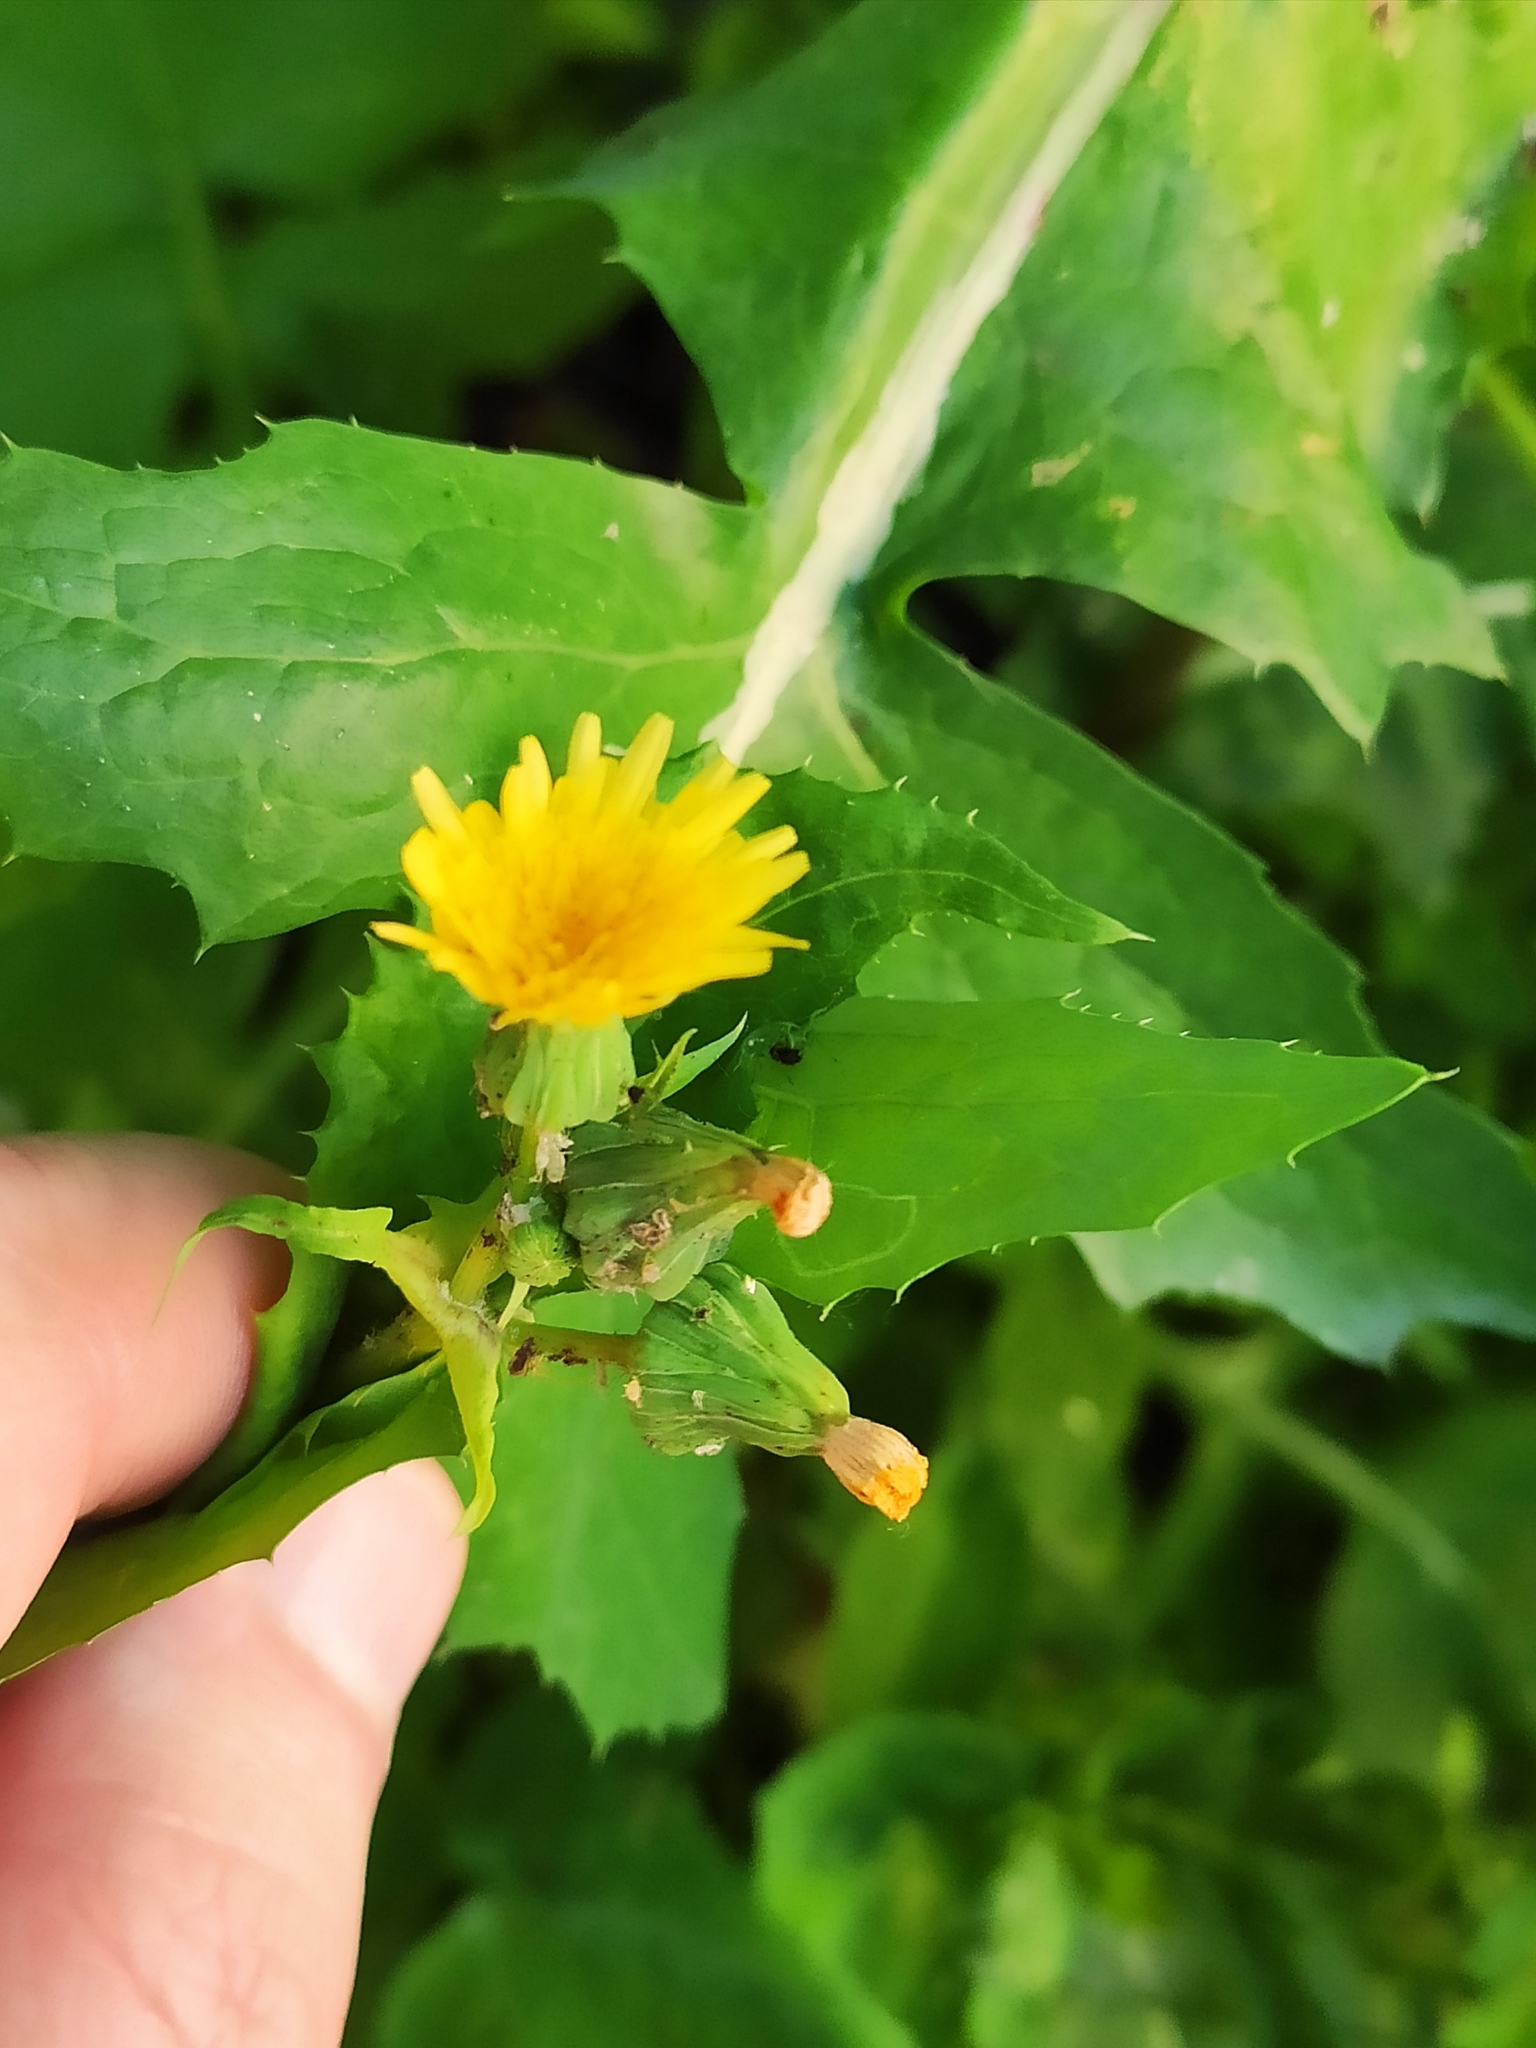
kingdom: Plantae
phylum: Tracheophyta
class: Magnoliopsida
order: Asterales
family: Asteraceae
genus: Sonchus
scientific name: Sonchus oleraceus
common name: Common sowthistle
